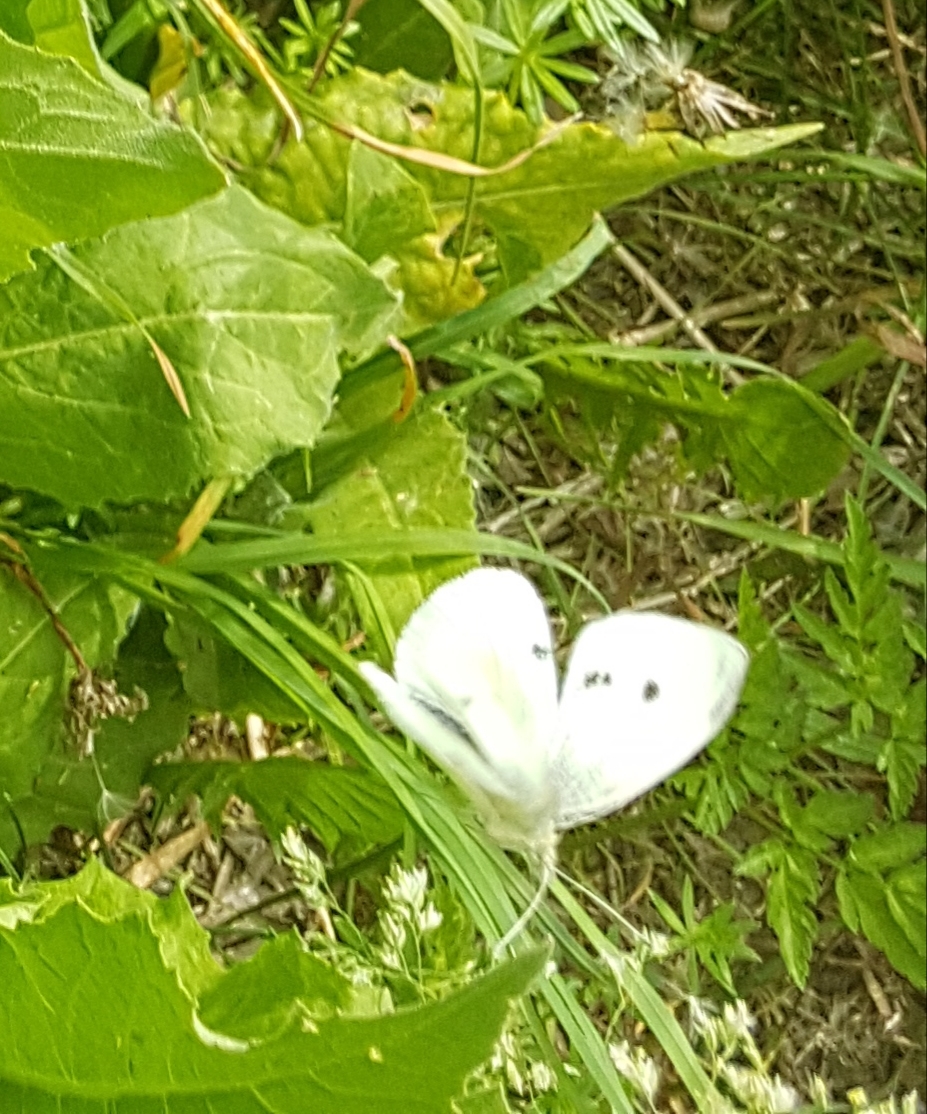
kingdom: Animalia
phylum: Arthropoda
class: Insecta
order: Lepidoptera
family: Pieridae
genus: Pieris
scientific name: Pieris rapae
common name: Small white
